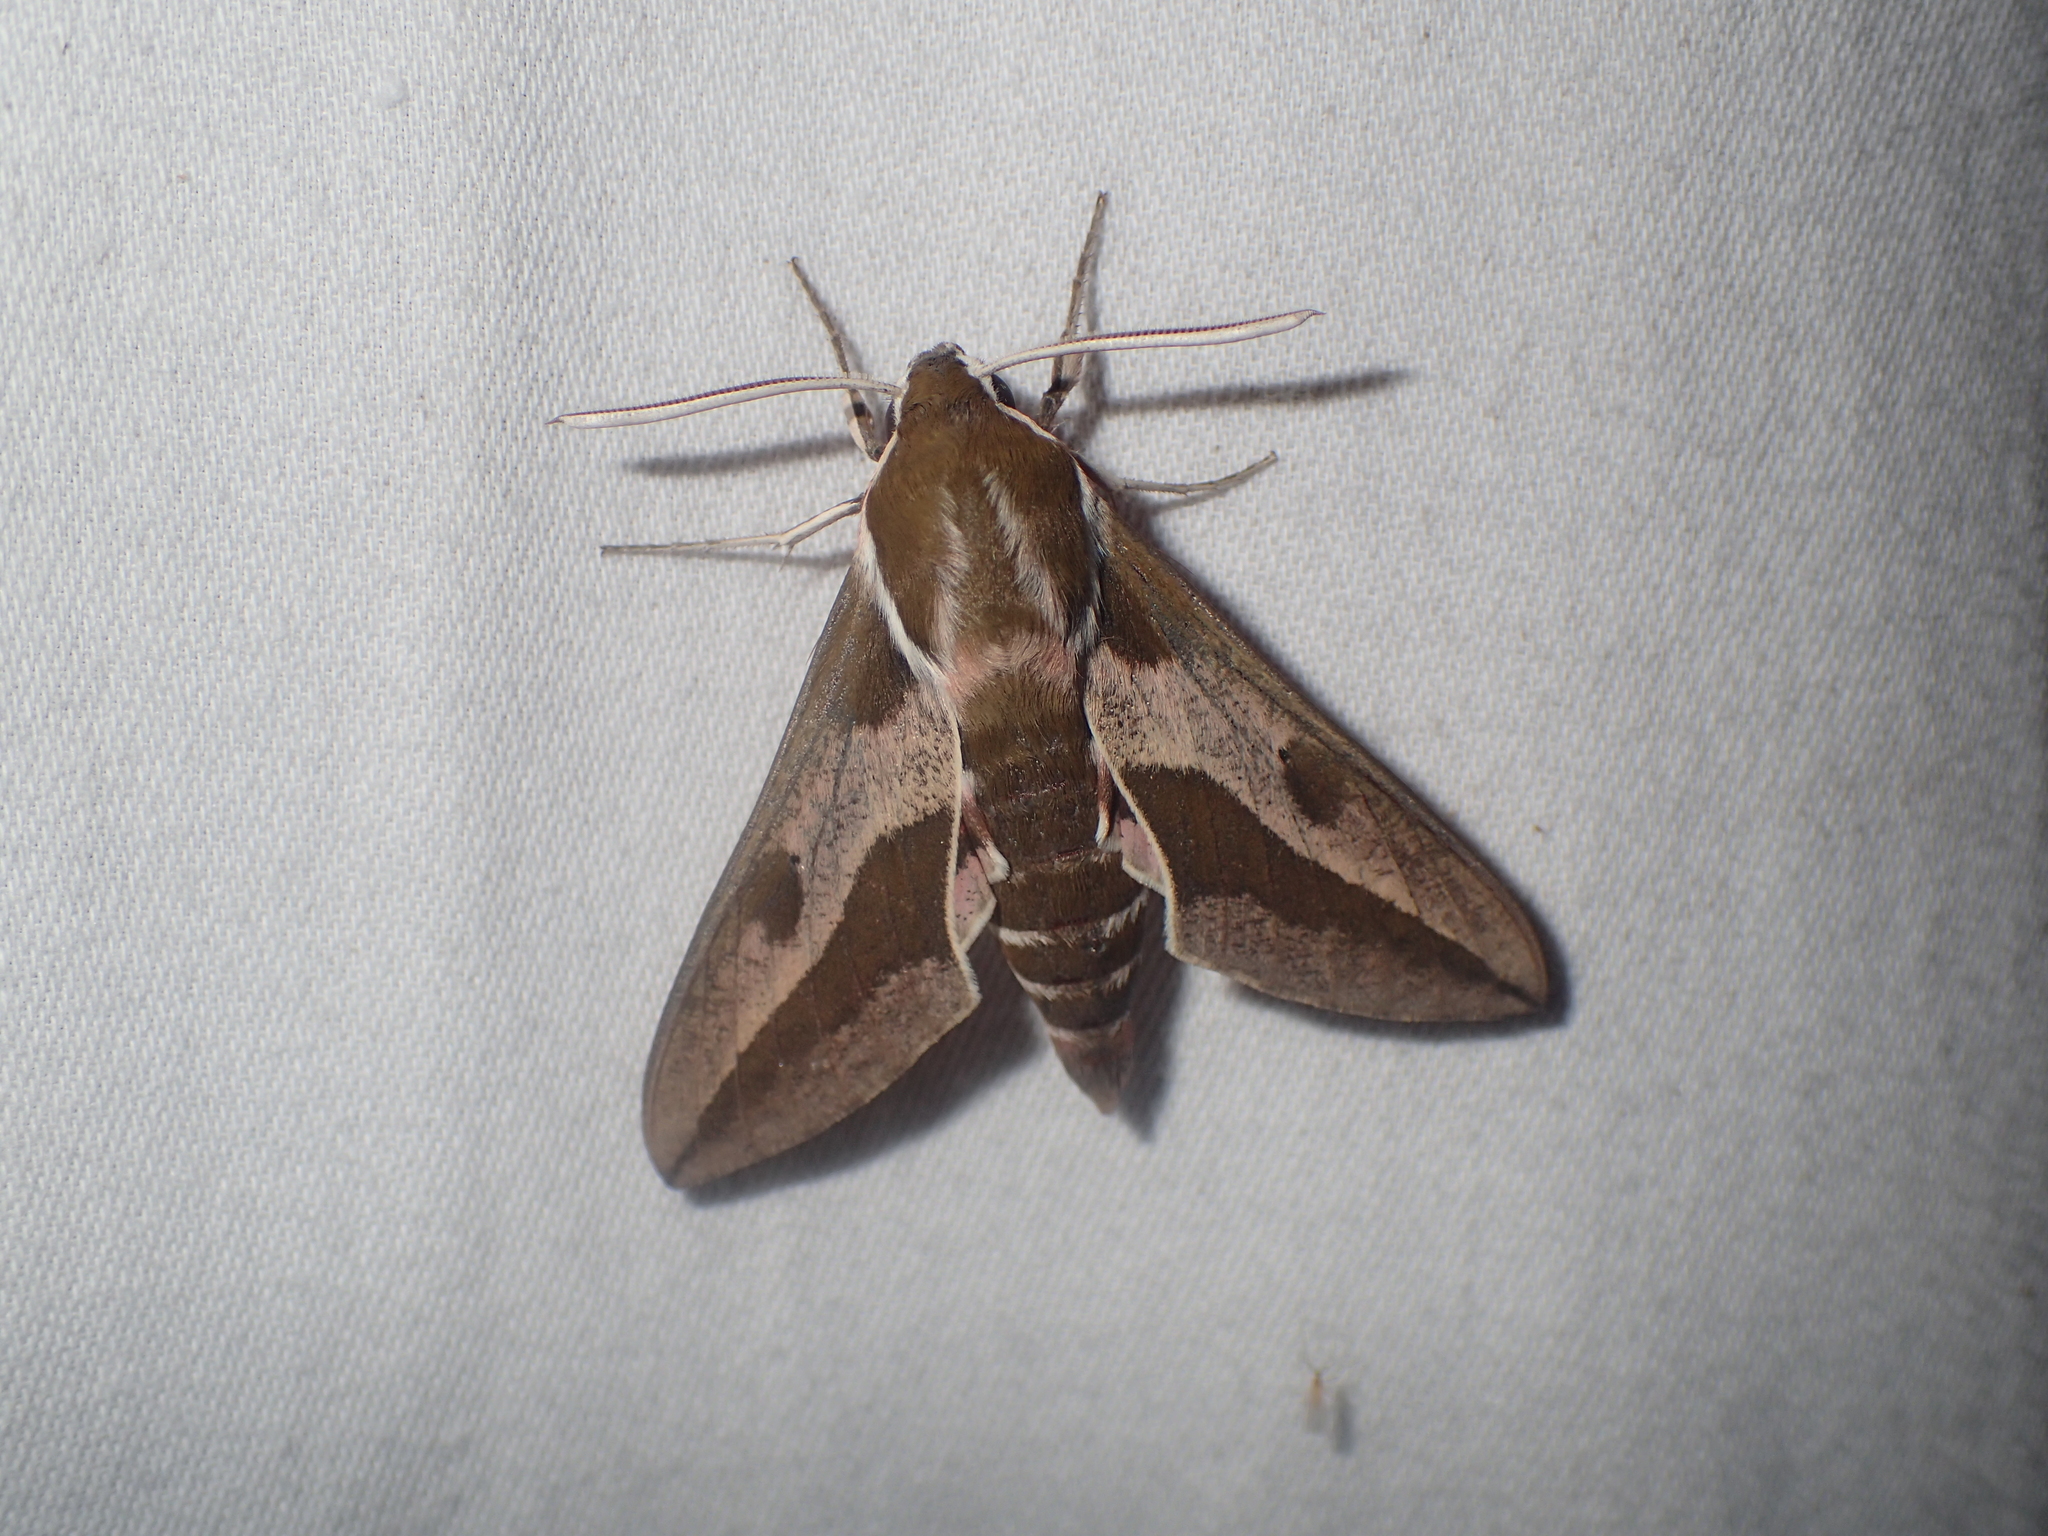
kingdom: Animalia
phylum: Arthropoda
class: Insecta
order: Lepidoptera
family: Sphingidae
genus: Hyles
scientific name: Hyles euphorbiae
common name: Spurge hawk-moth
